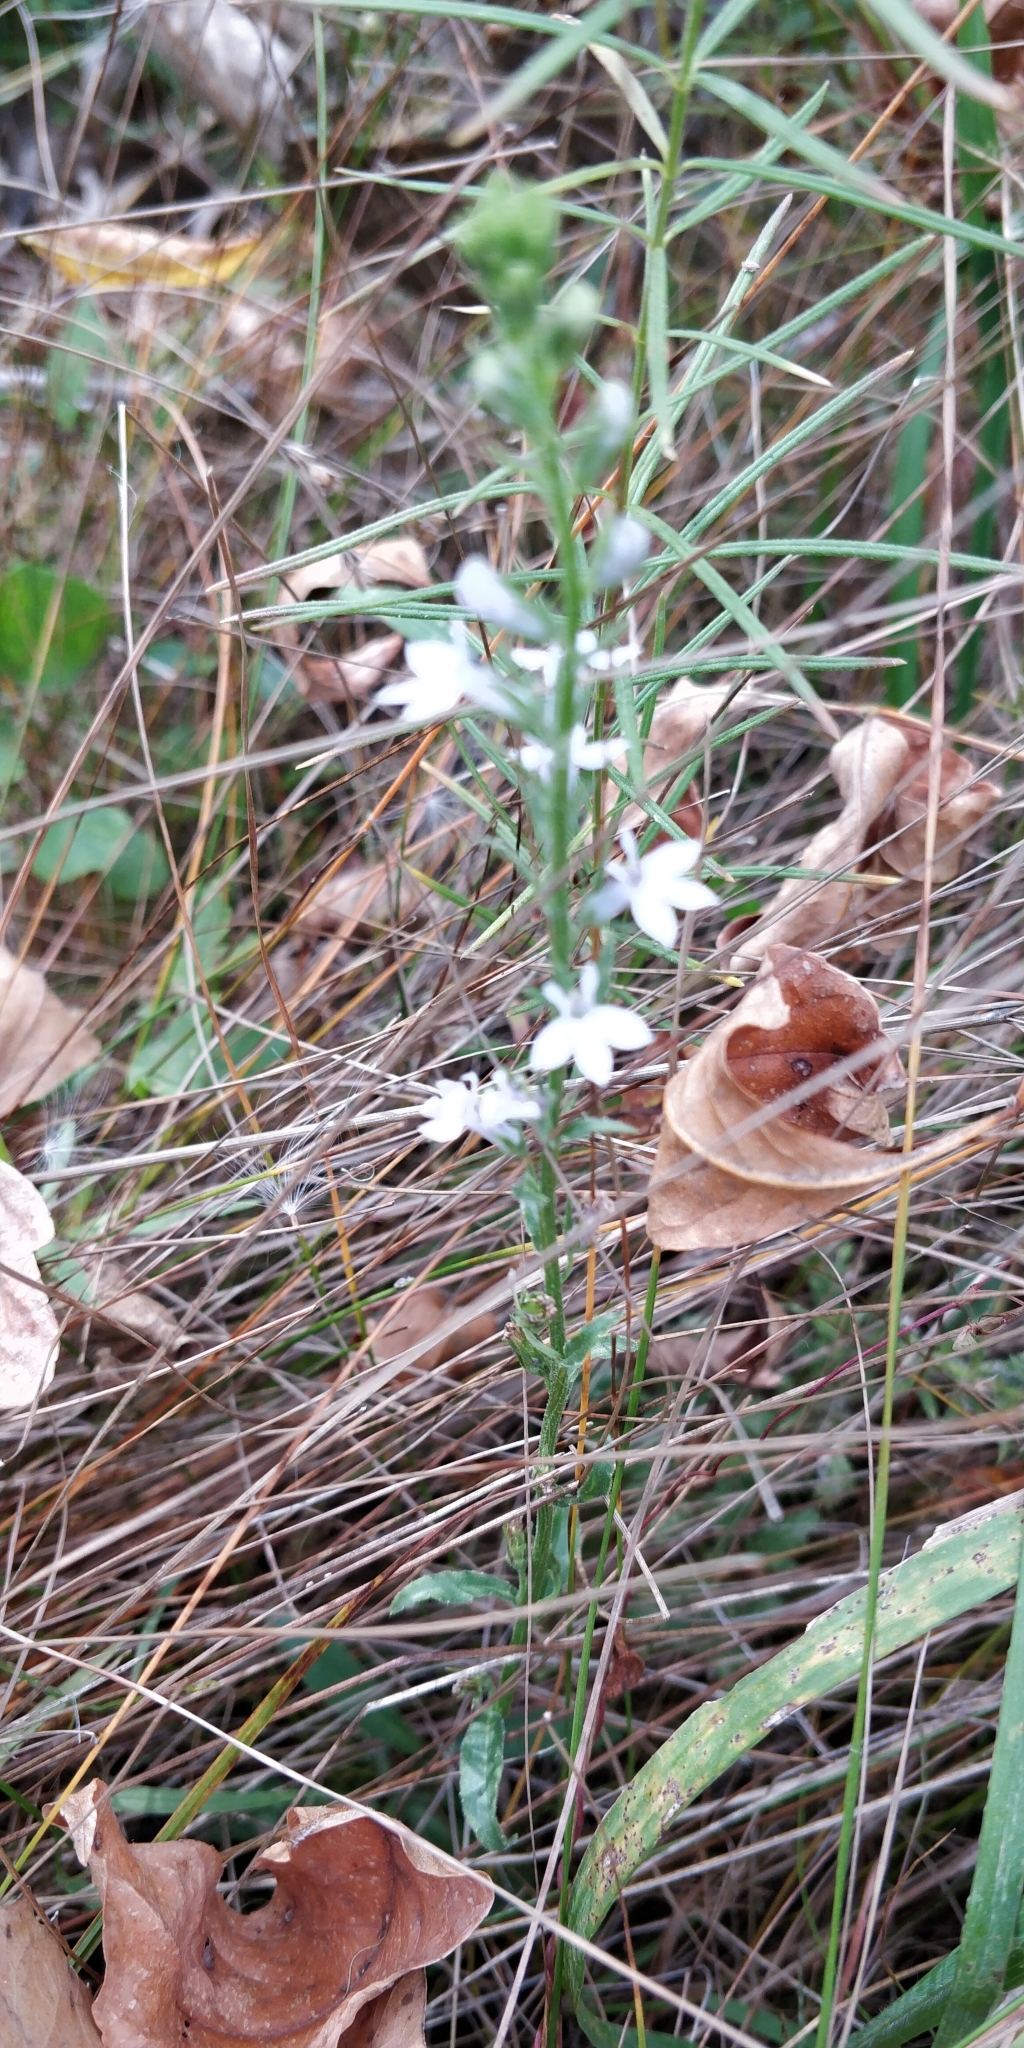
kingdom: Plantae
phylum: Tracheophyta
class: Magnoliopsida
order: Asterales
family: Campanulaceae
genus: Lobelia
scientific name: Lobelia spicata
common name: Pale-spike lobelia
